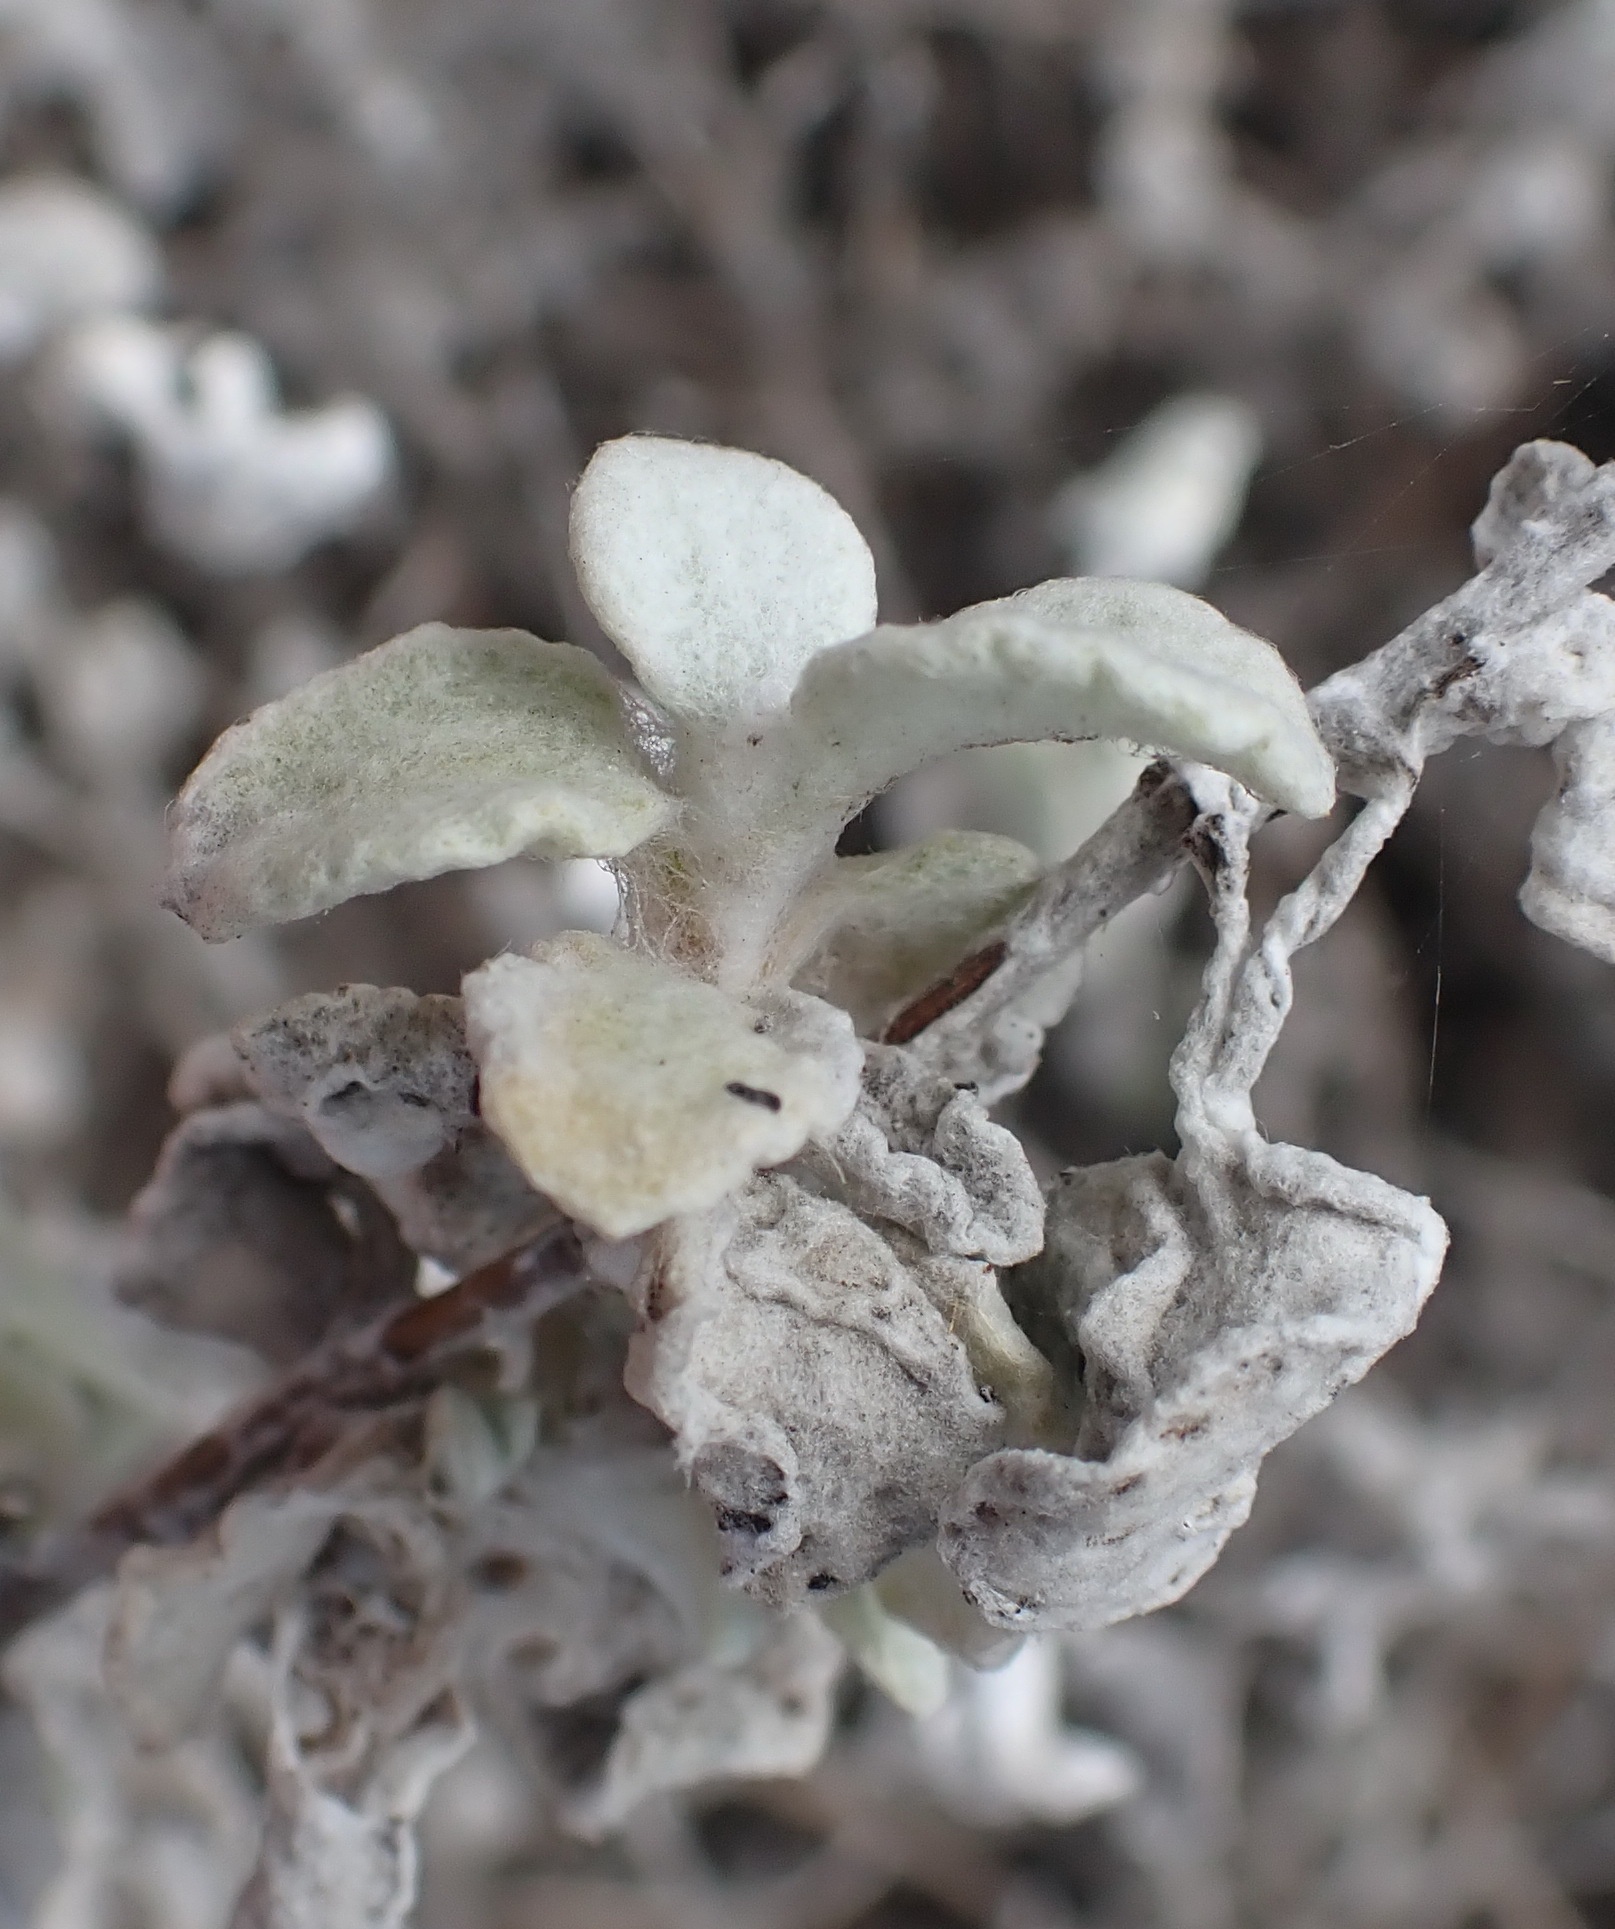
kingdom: Plantae
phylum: Tracheophyta
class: Magnoliopsida
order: Asterales
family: Asteraceae
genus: Helichrysum
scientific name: Helichrysum petiolare
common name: Licorice-plant
